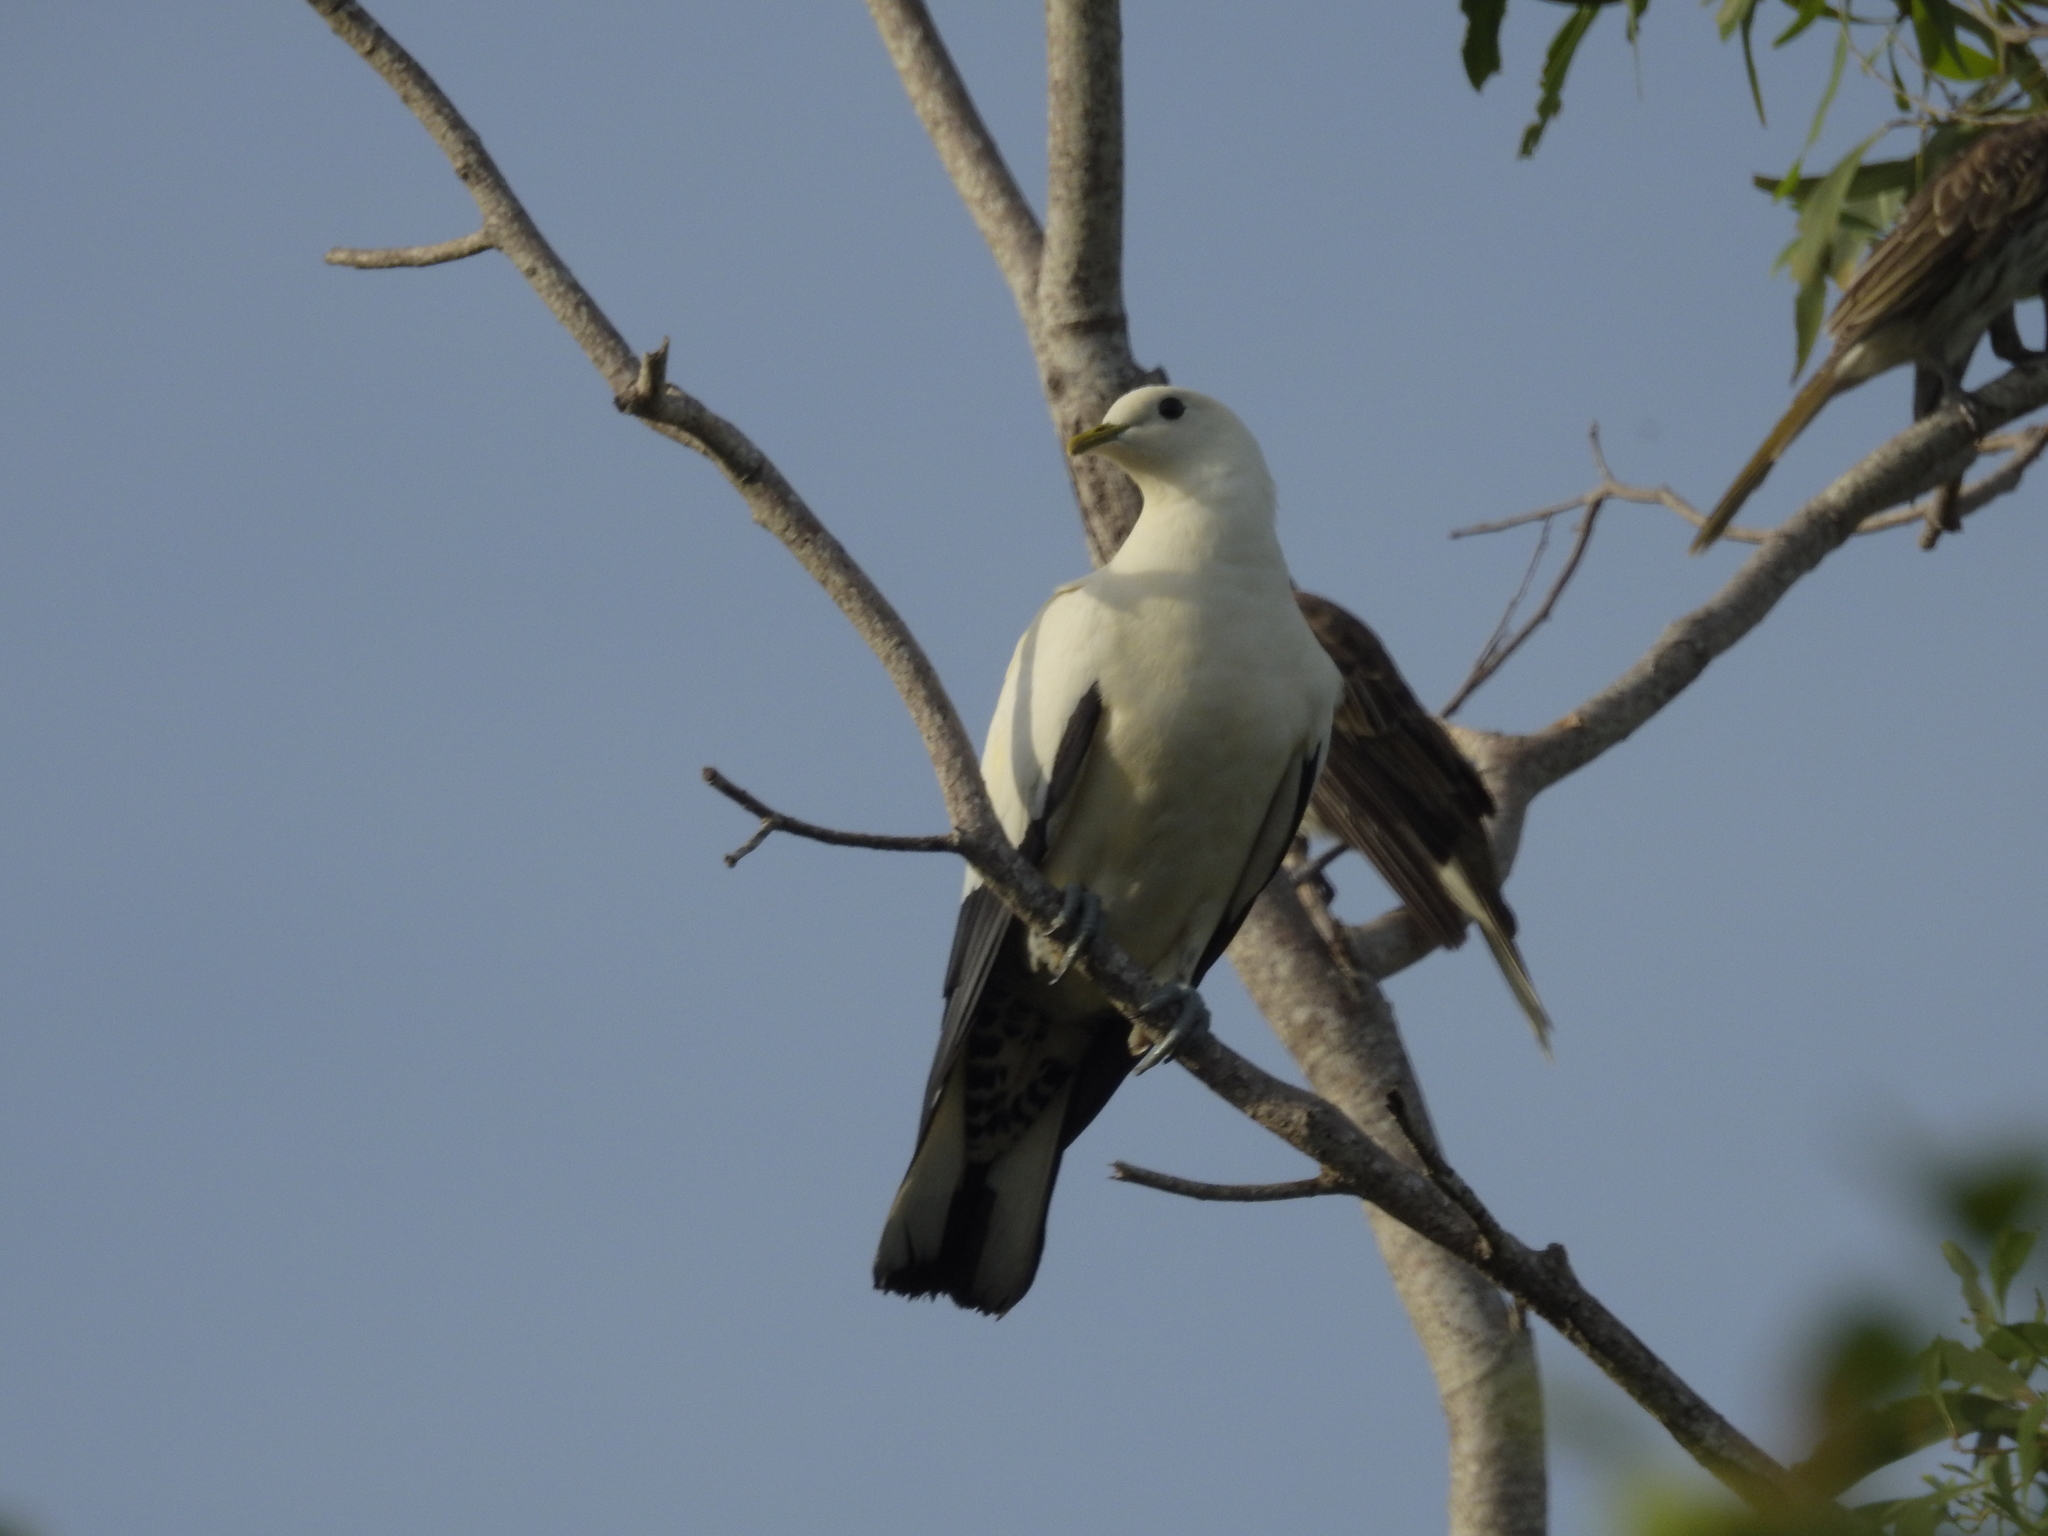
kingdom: Animalia
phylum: Chordata
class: Aves
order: Columbiformes
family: Columbidae
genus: Ducula
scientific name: Ducula spilorrhoa
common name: Torresian imperial pigeon
